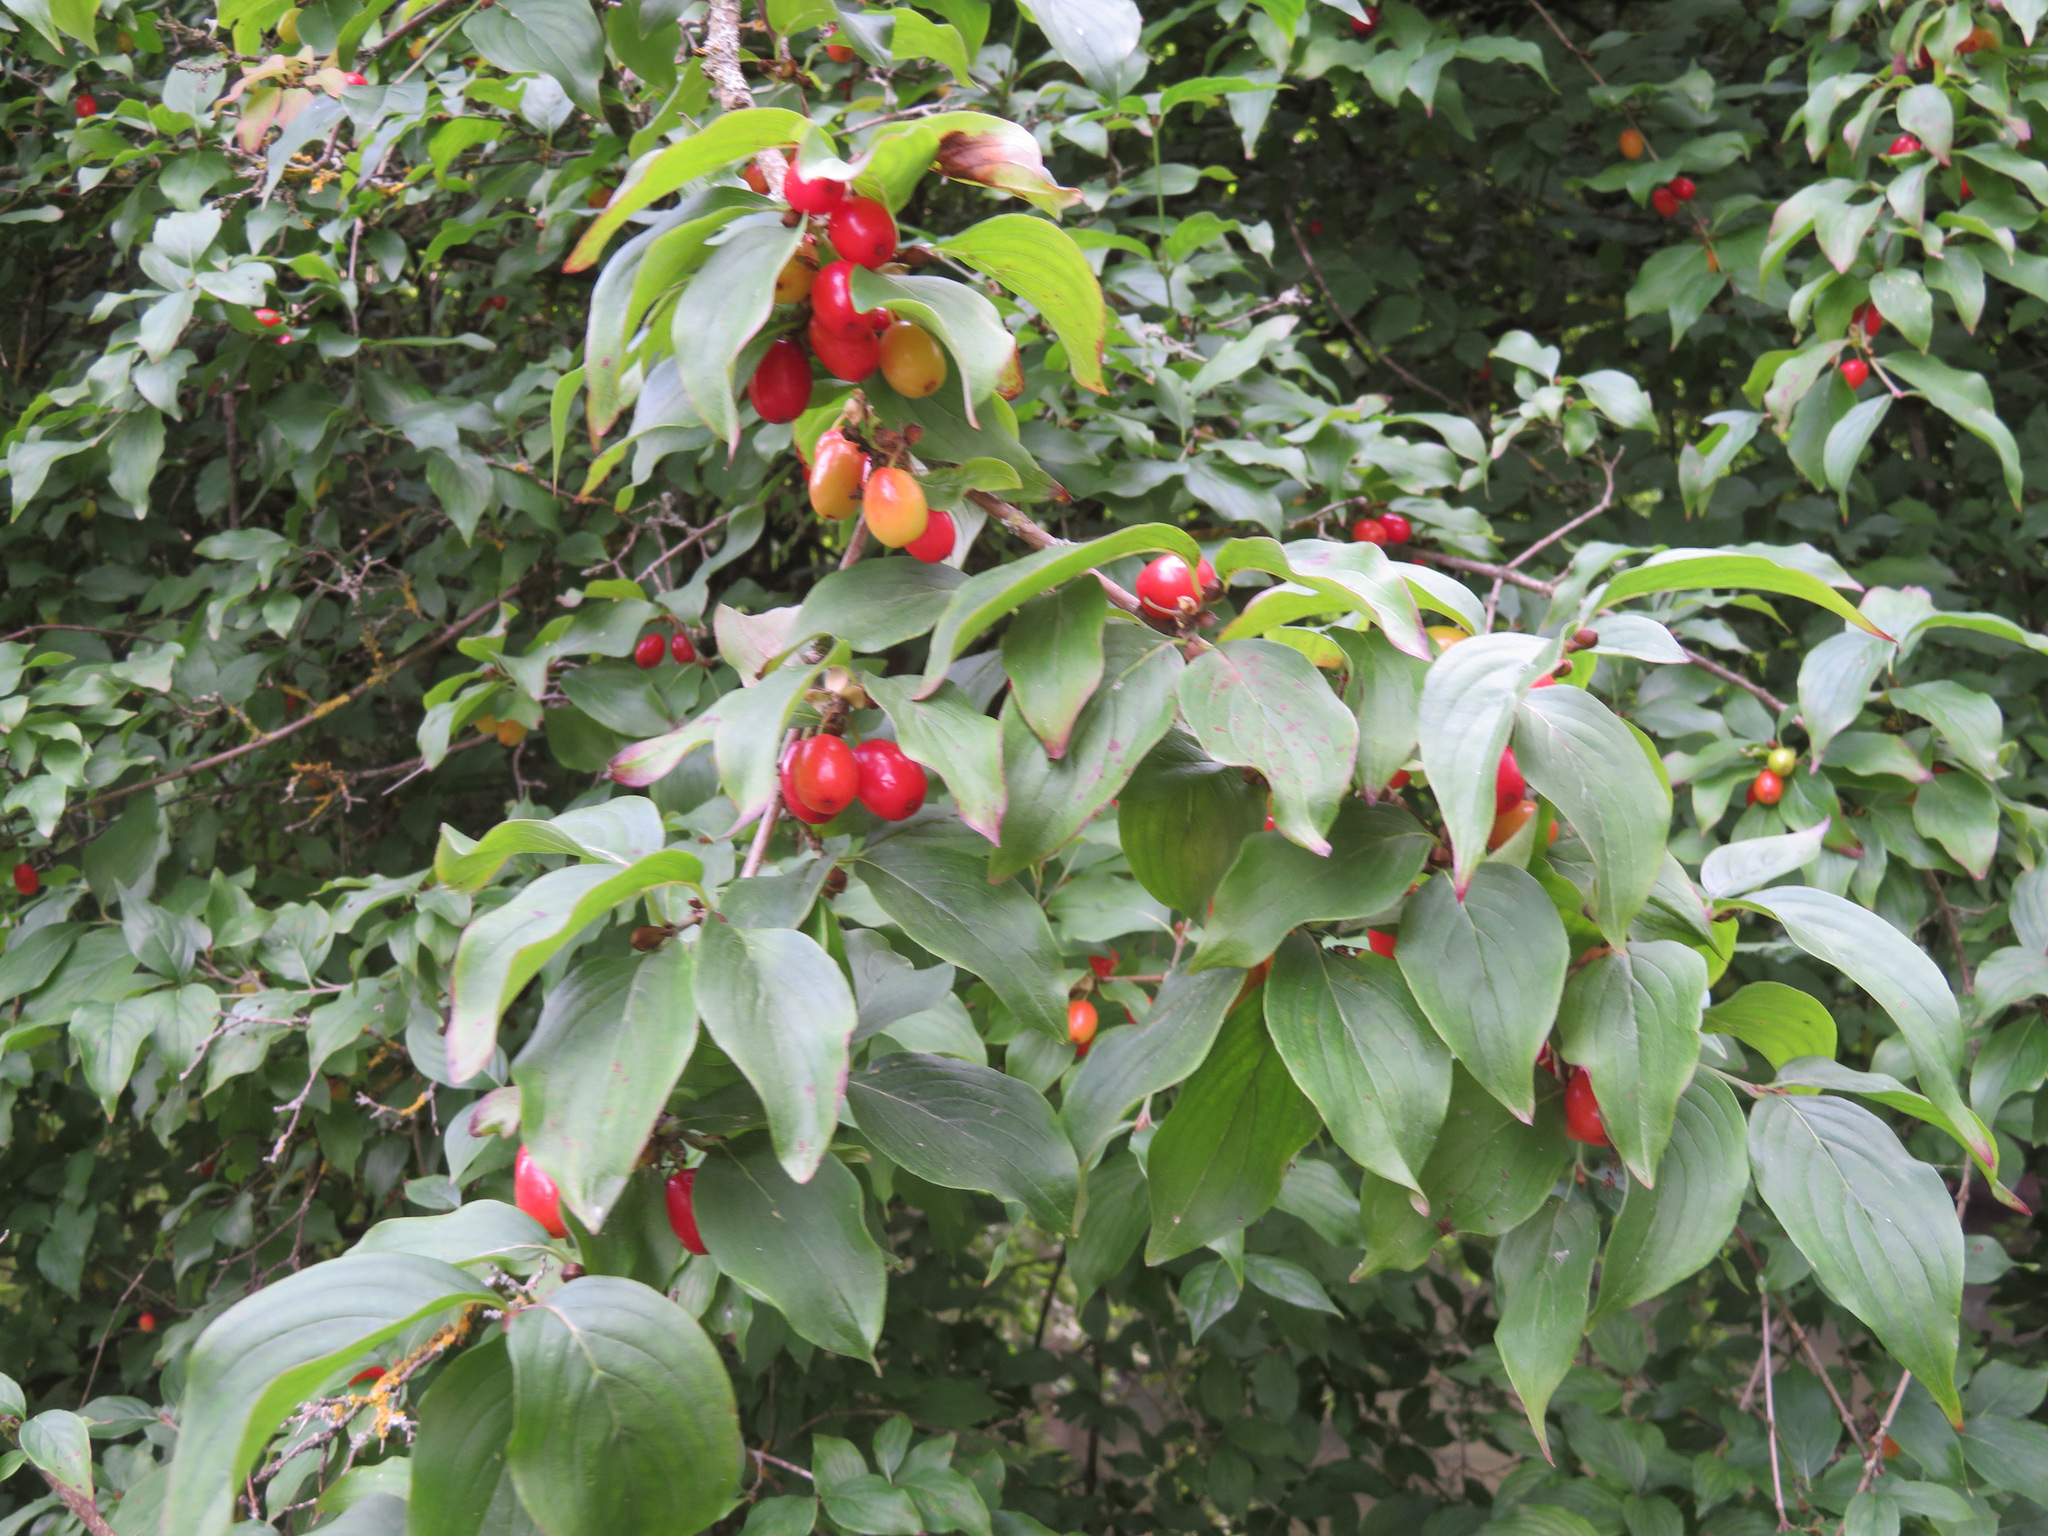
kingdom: Plantae
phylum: Tracheophyta
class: Magnoliopsida
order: Cornales
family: Cornaceae
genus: Cornus
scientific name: Cornus mas
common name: Cornelian-cherry
